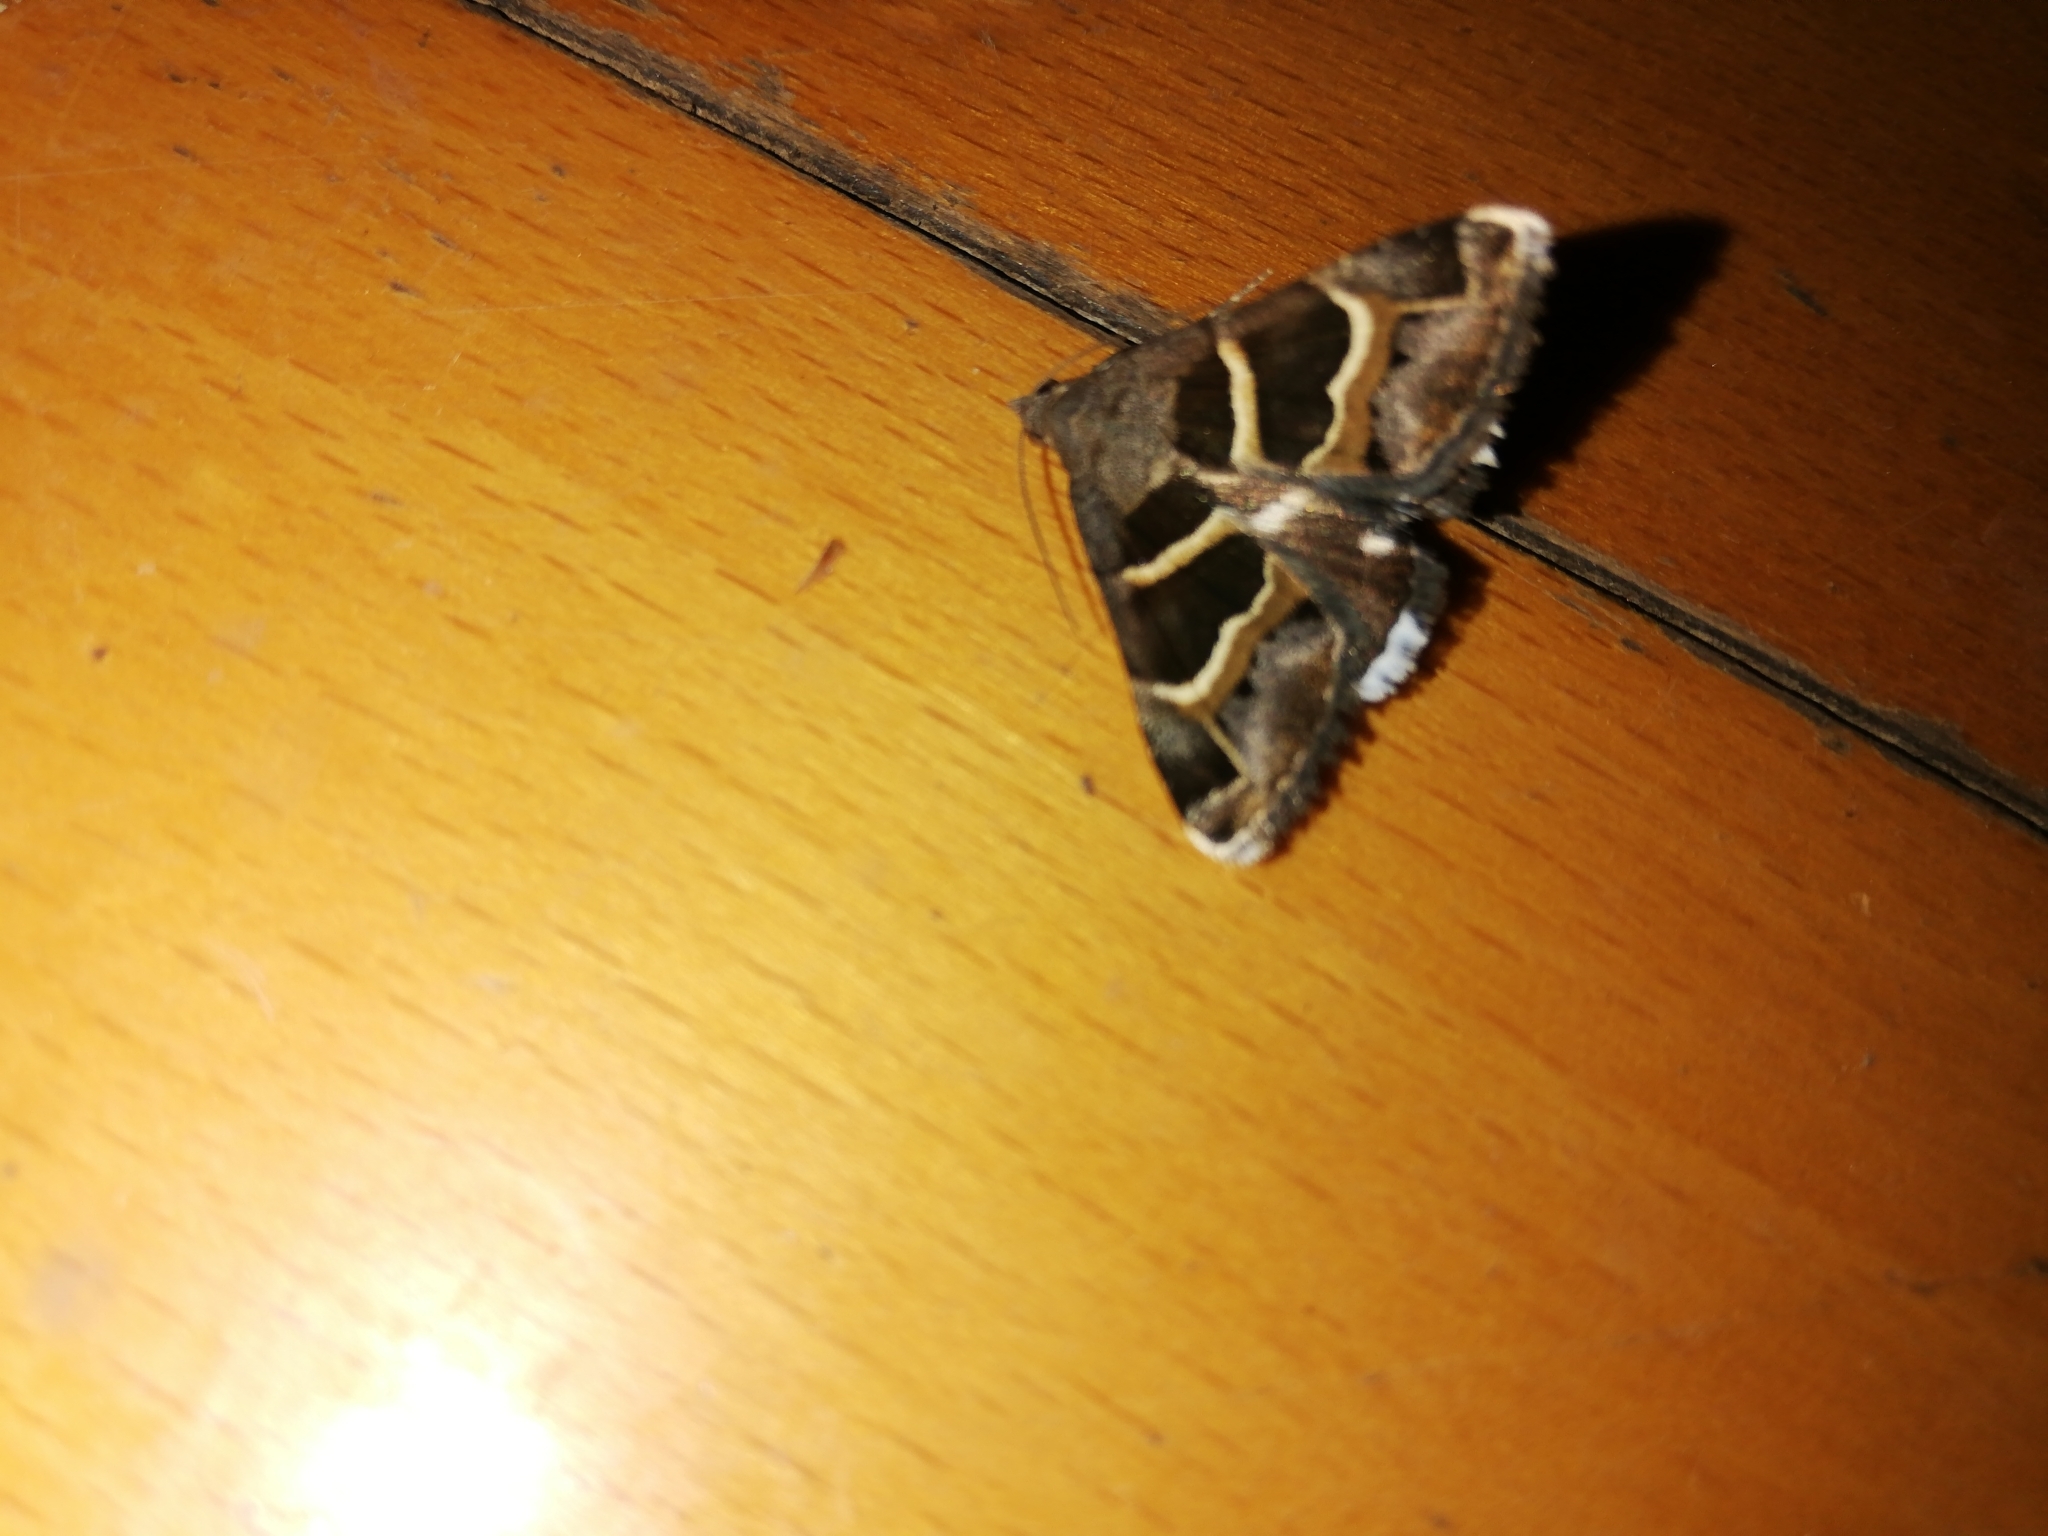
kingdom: Animalia
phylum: Arthropoda
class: Insecta
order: Lepidoptera
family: Erebidae
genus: Grammodes
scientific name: Grammodes stolida
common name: Geometrician
